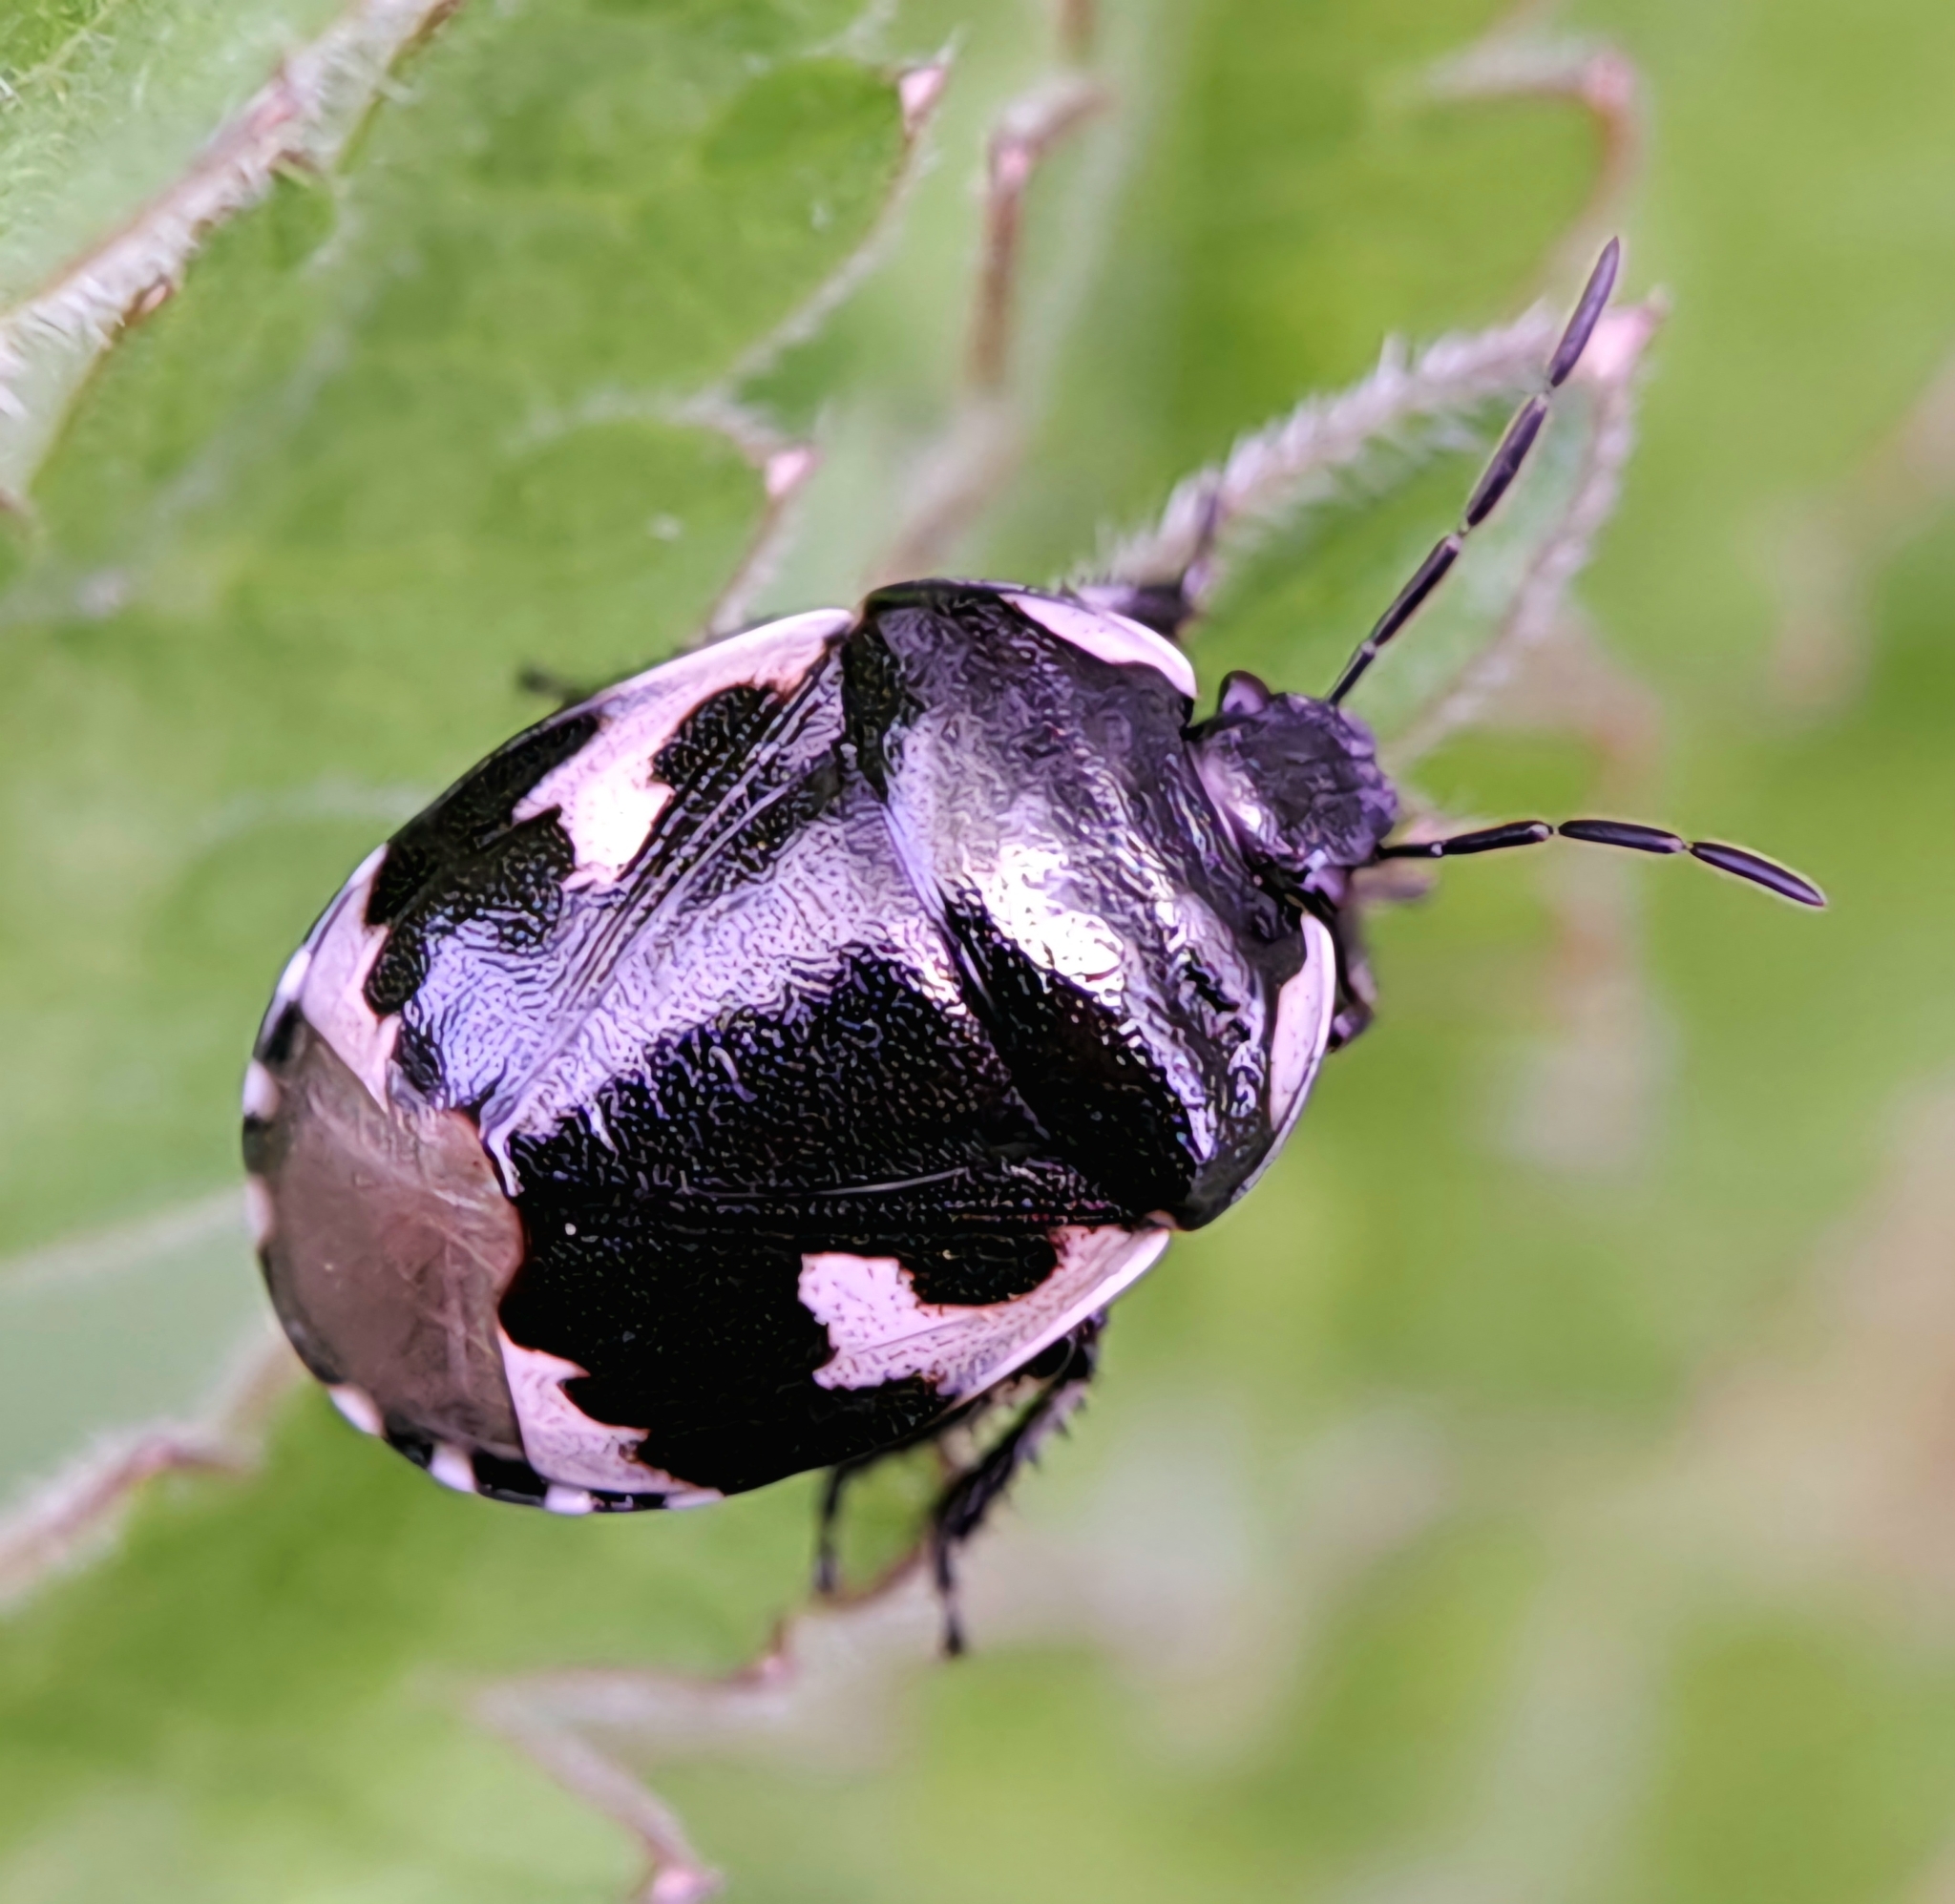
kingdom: Animalia
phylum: Arthropoda
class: Insecta
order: Hemiptera
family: Cydnidae
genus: Tritomegas
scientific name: Tritomegas bicolor
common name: Pied shieldbug
